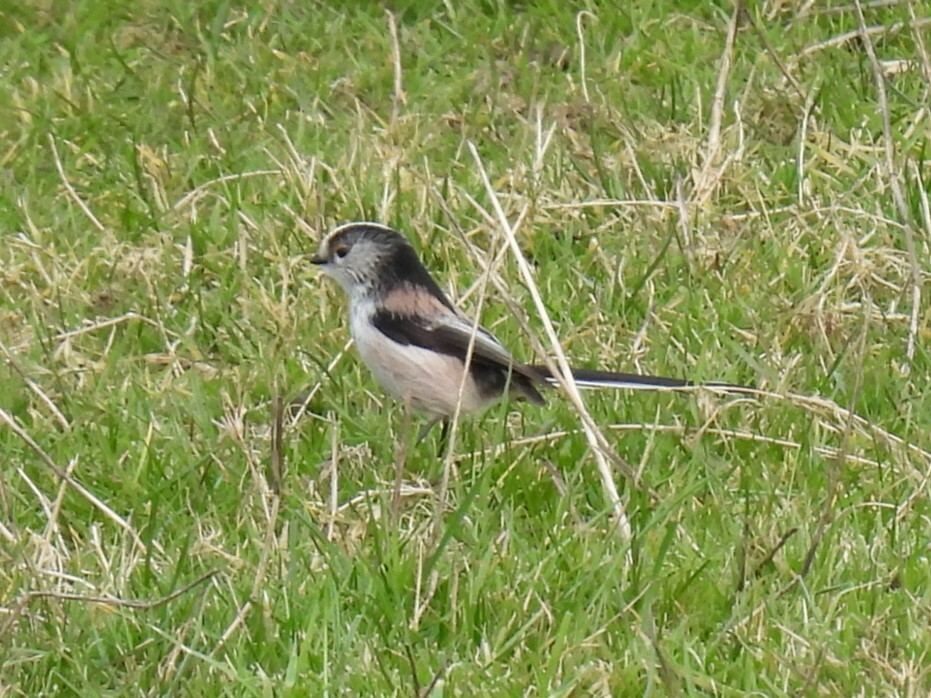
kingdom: Animalia
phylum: Chordata
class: Aves
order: Passeriformes
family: Aegithalidae
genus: Aegithalos
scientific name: Aegithalos caudatus
